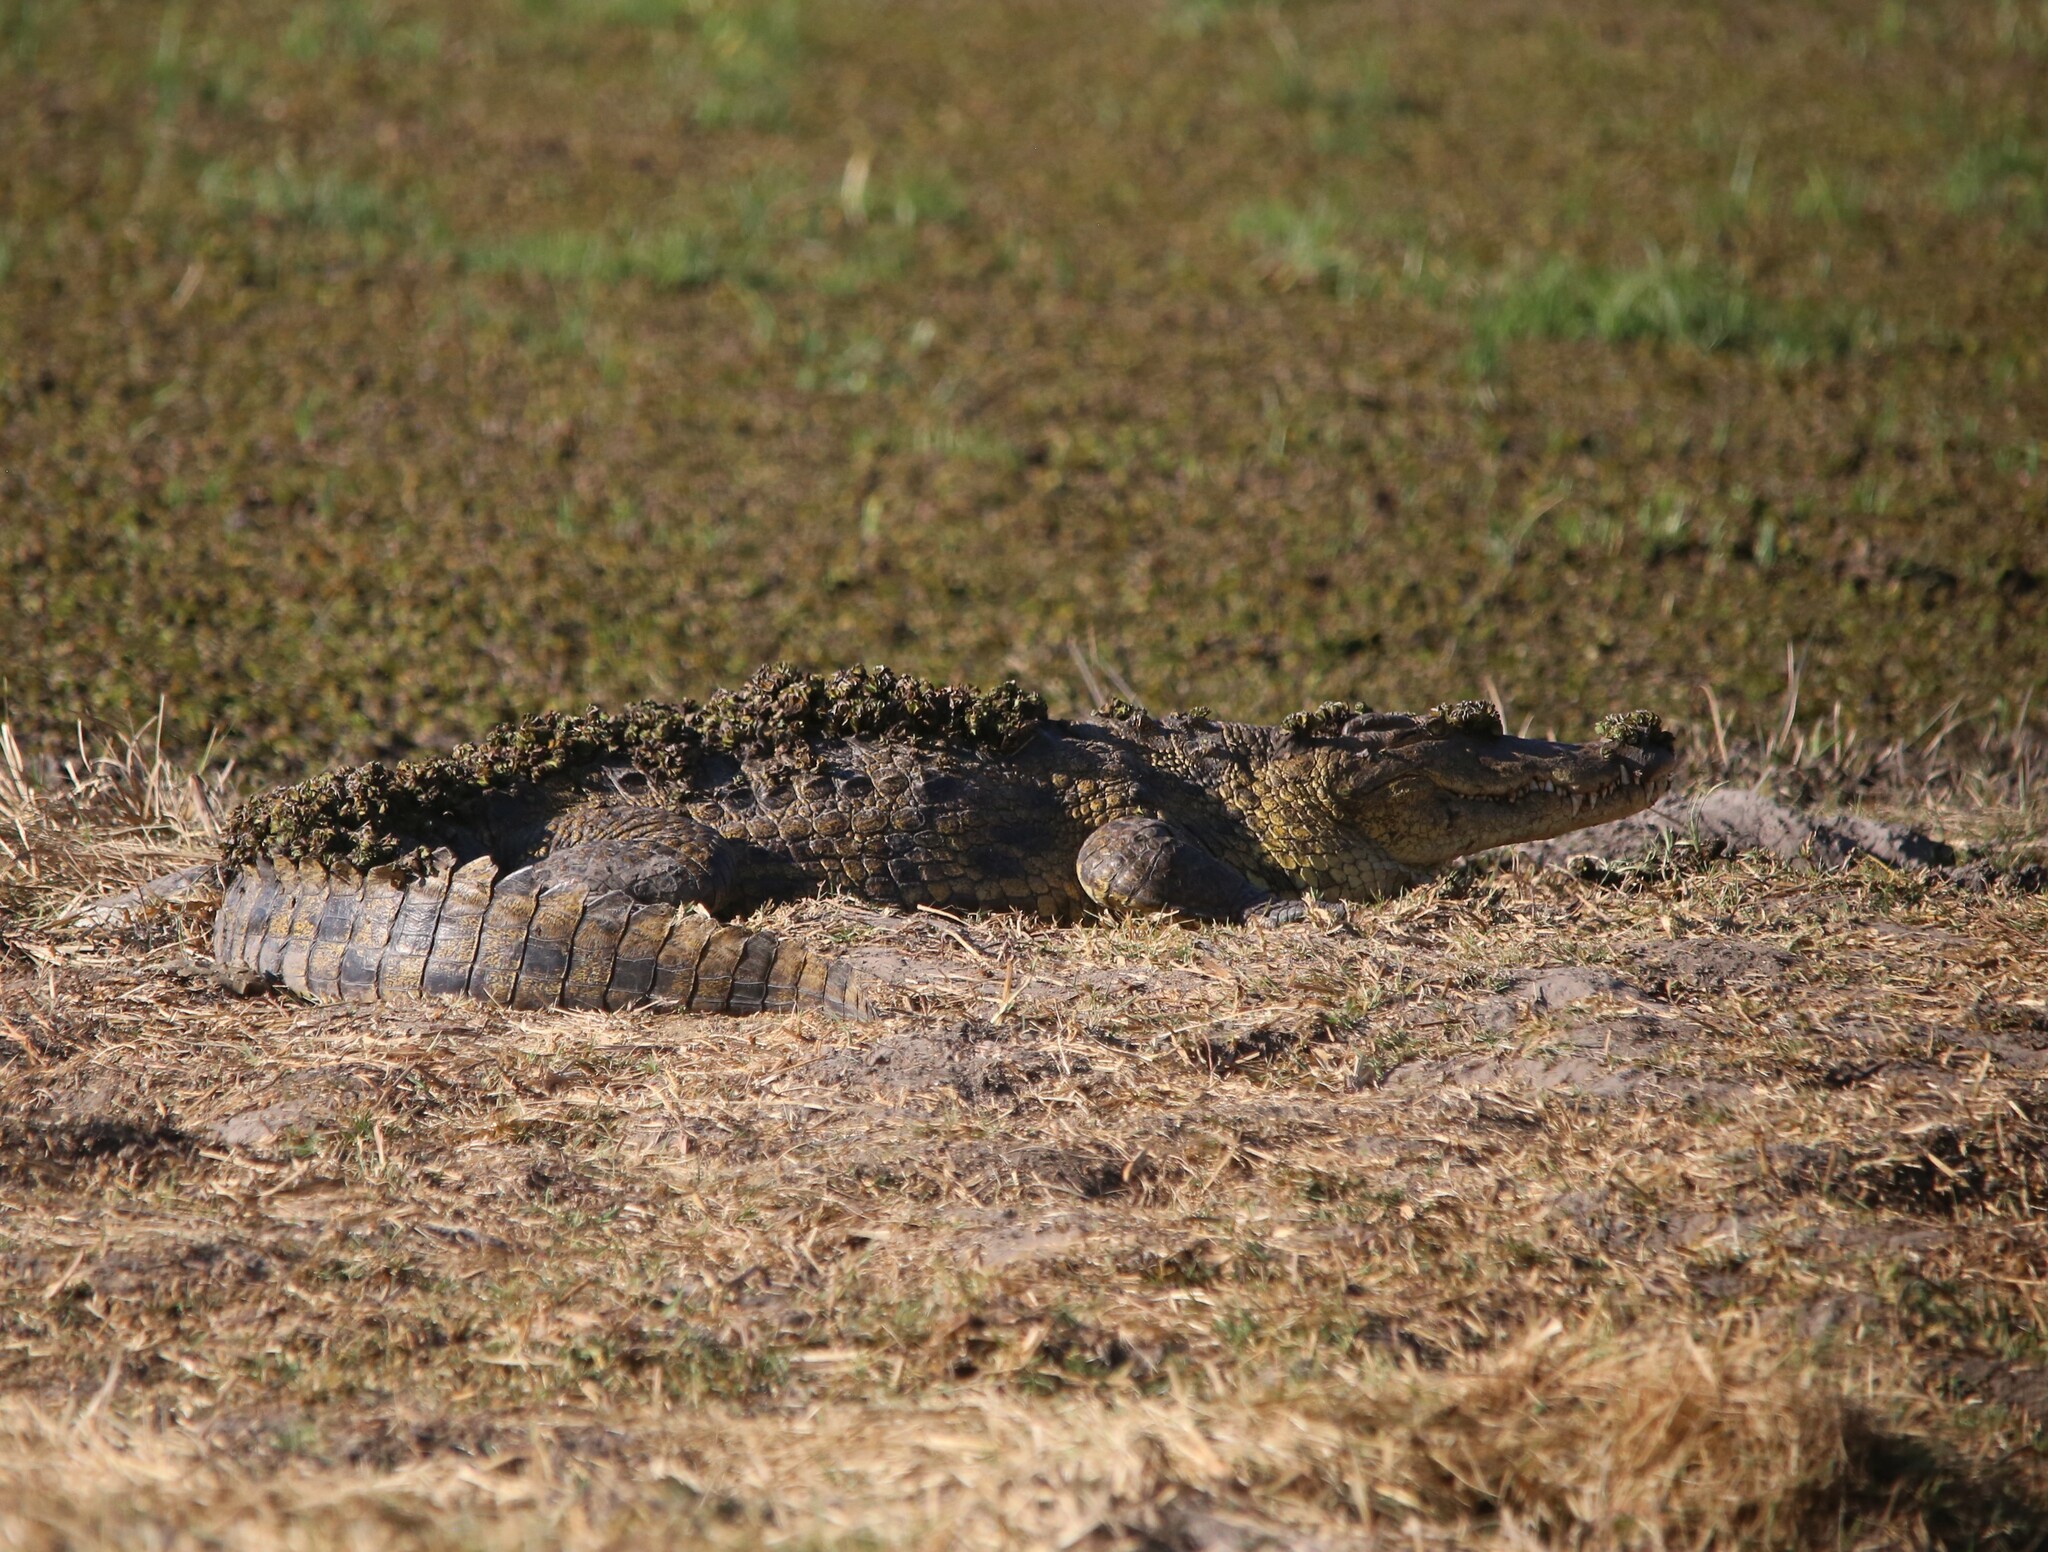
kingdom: Animalia
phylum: Chordata
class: Crocodylia
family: Crocodylidae
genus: Crocodylus
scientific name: Crocodylus niloticus
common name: Nile crocodile
